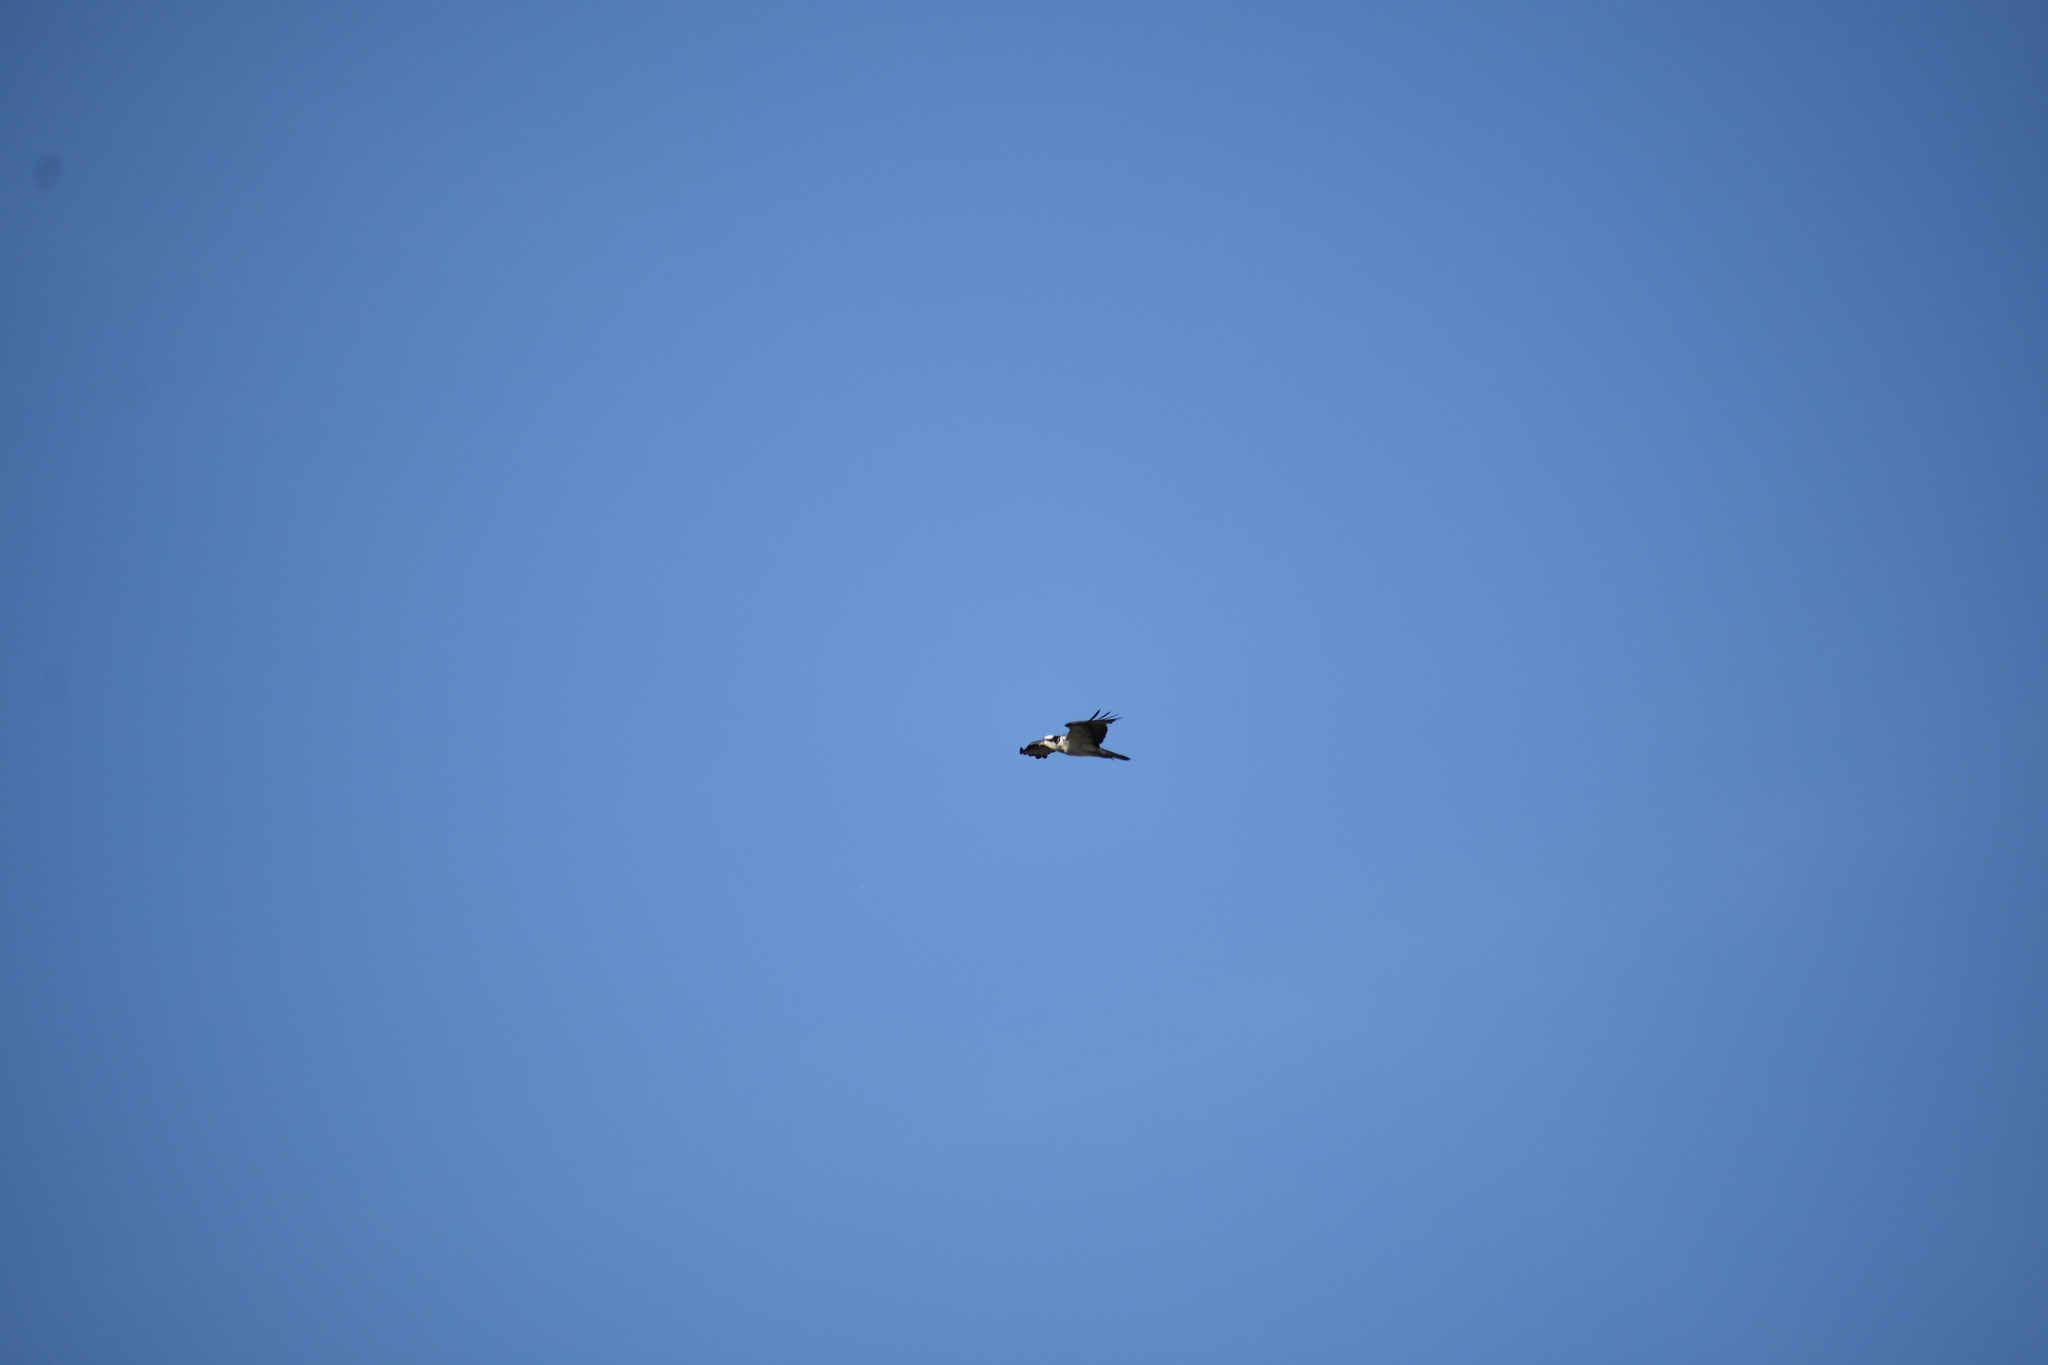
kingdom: Animalia
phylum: Chordata
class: Aves
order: Accipitriformes
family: Pandionidae
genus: Pandion
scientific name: Pandion haliaetus
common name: Osprey
